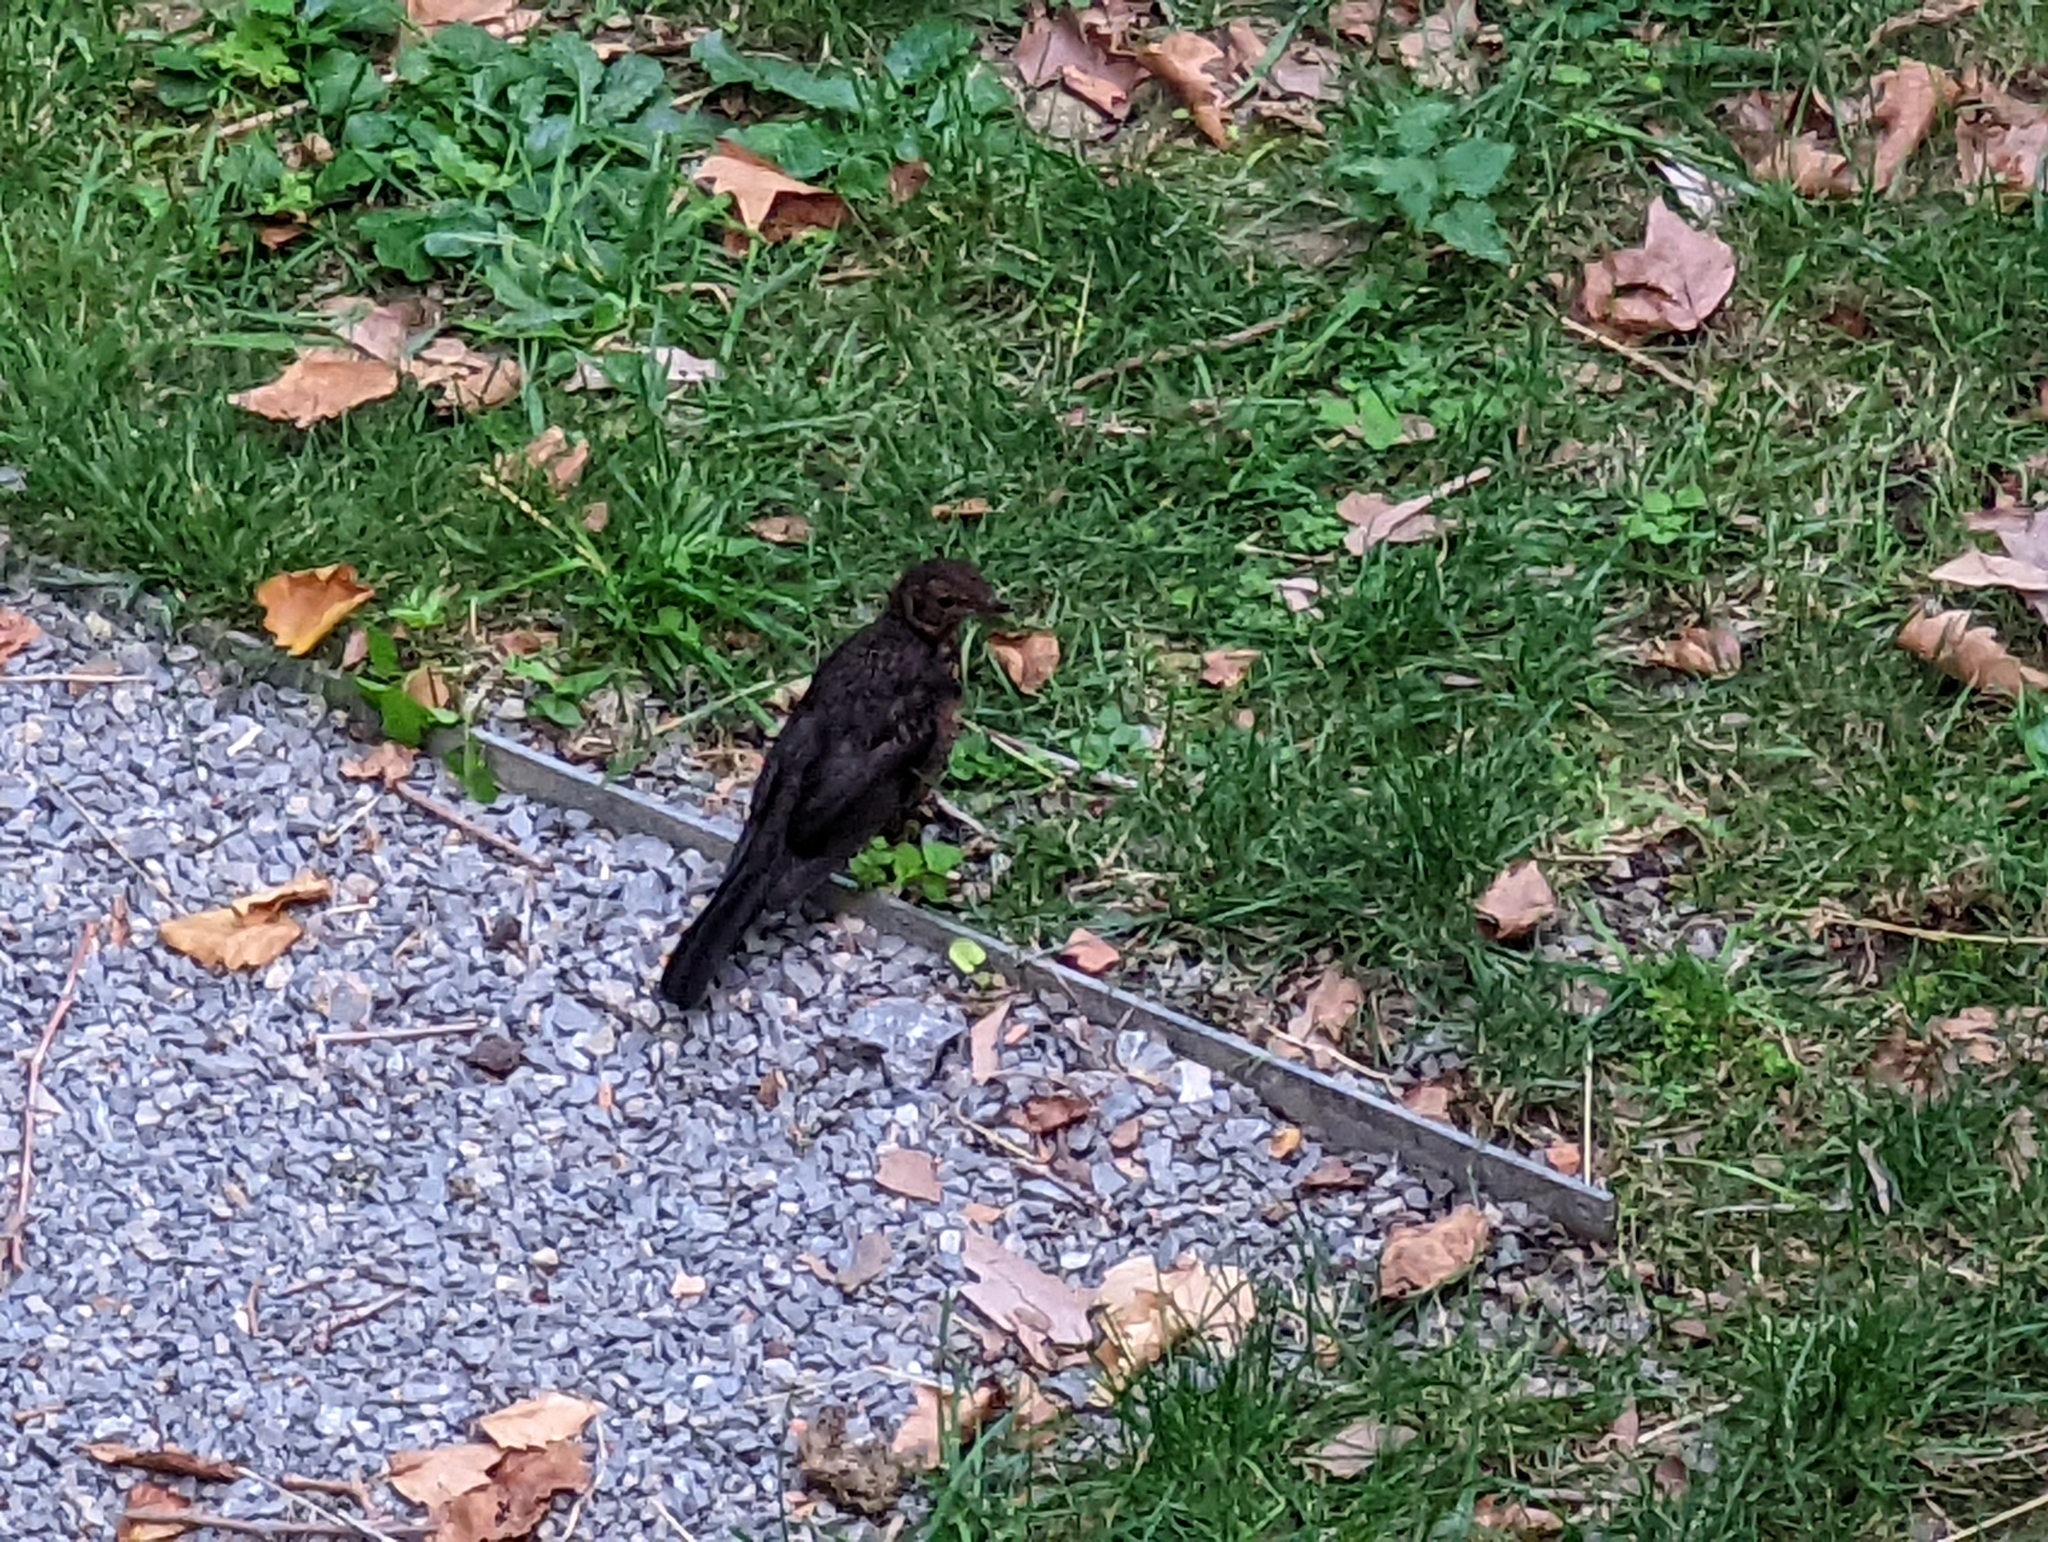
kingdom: Animalia
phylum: Chordata
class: Aves
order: Passeriformes
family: Turdidae
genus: Turdus
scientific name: Turdus merula
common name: Common blackbird
